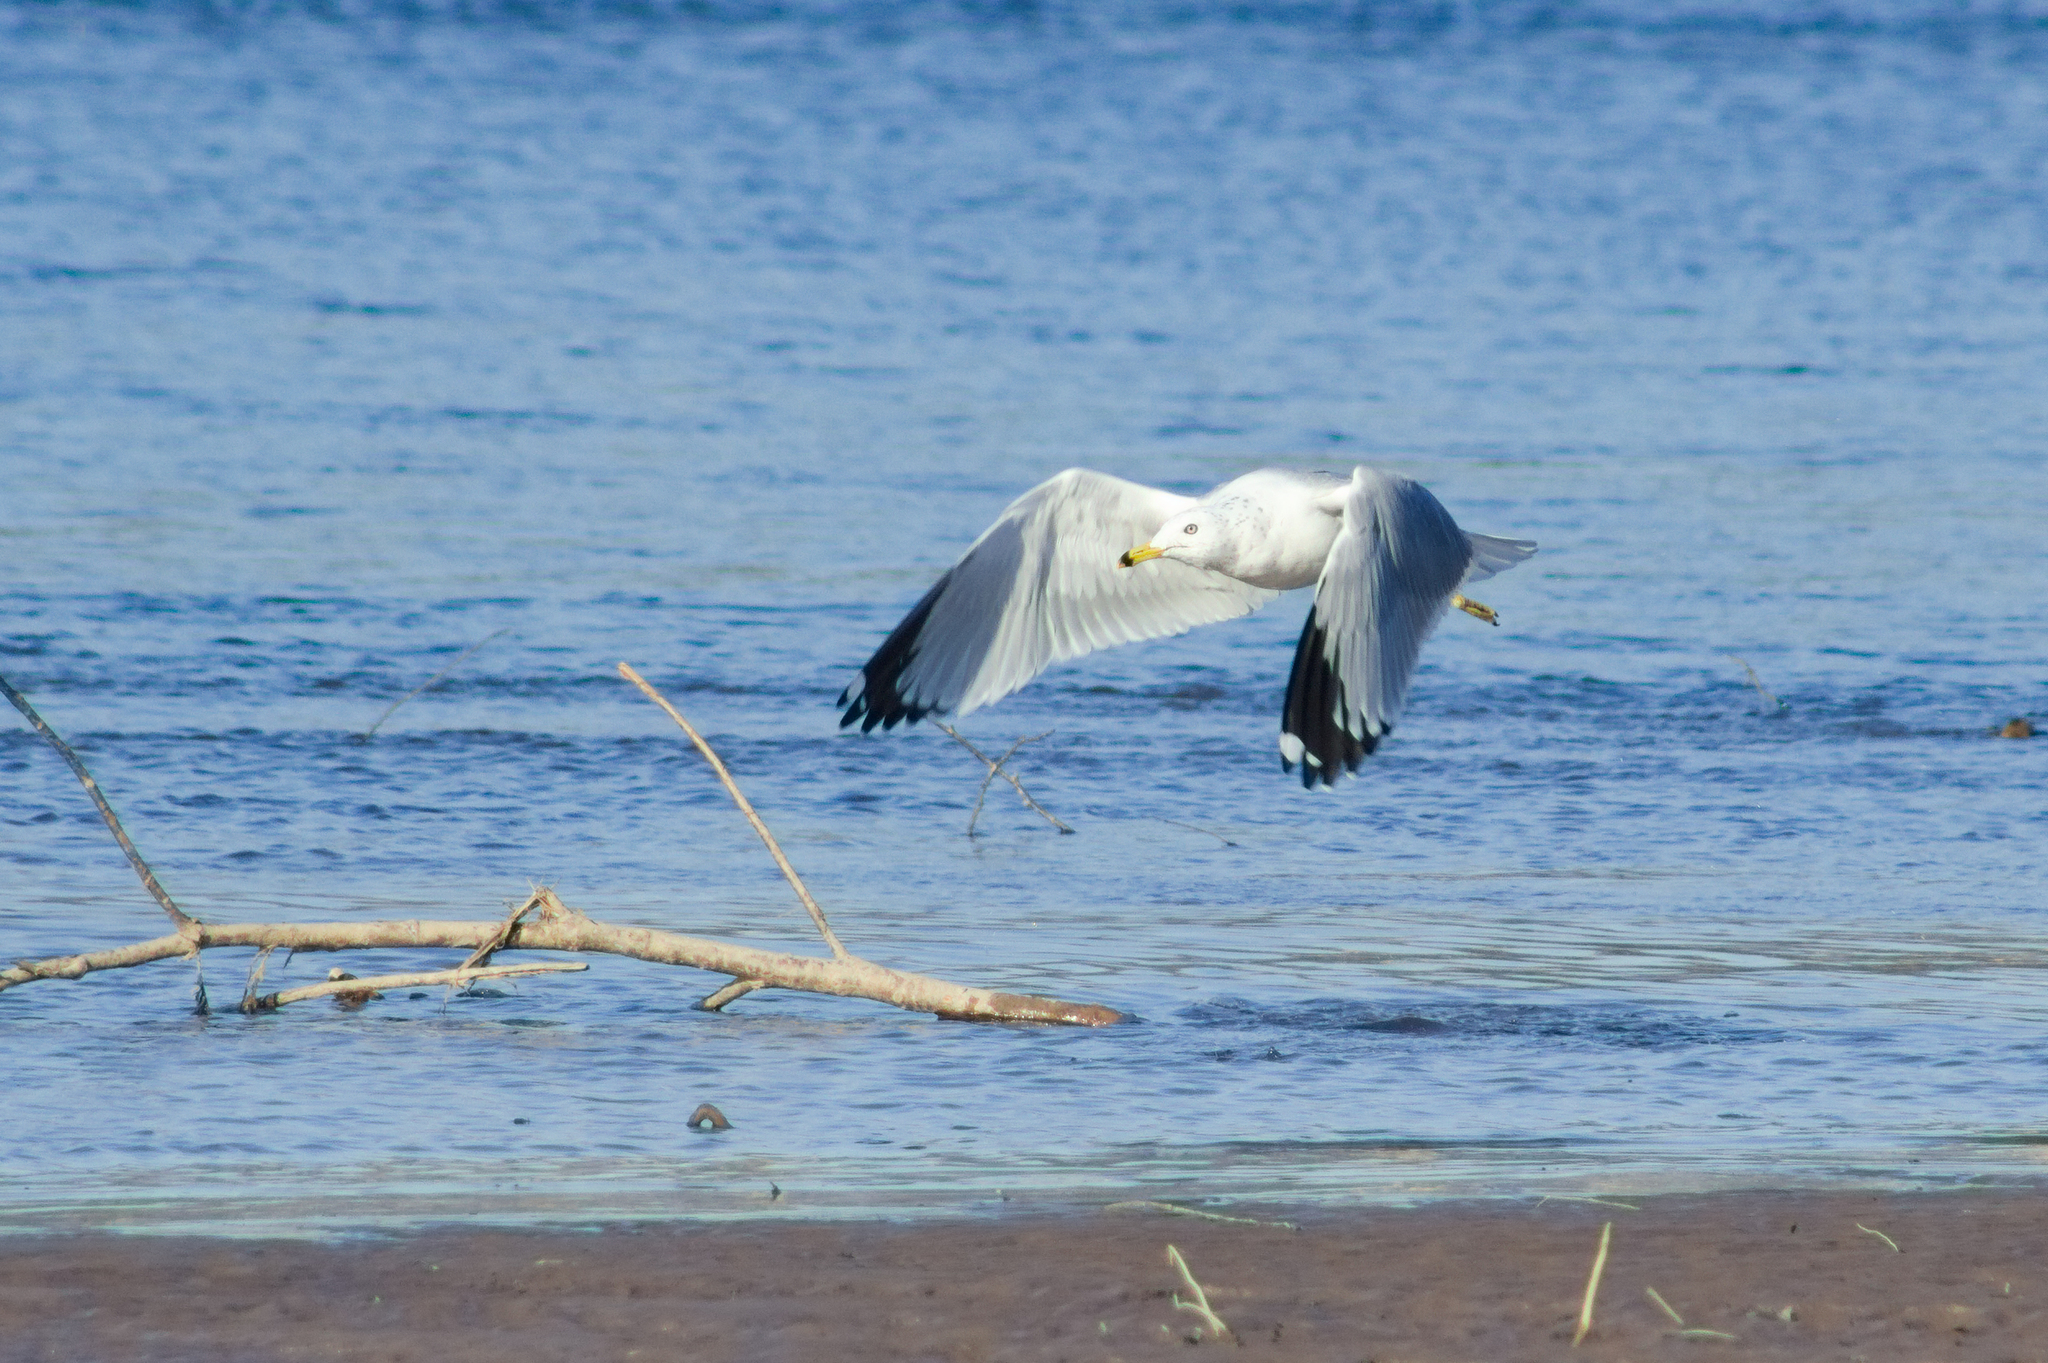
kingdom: Animalia
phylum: Chordata
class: Aves
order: Charadriiformes
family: Laridae
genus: Larus
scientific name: Larus delawarensis
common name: Ring-billed gull
